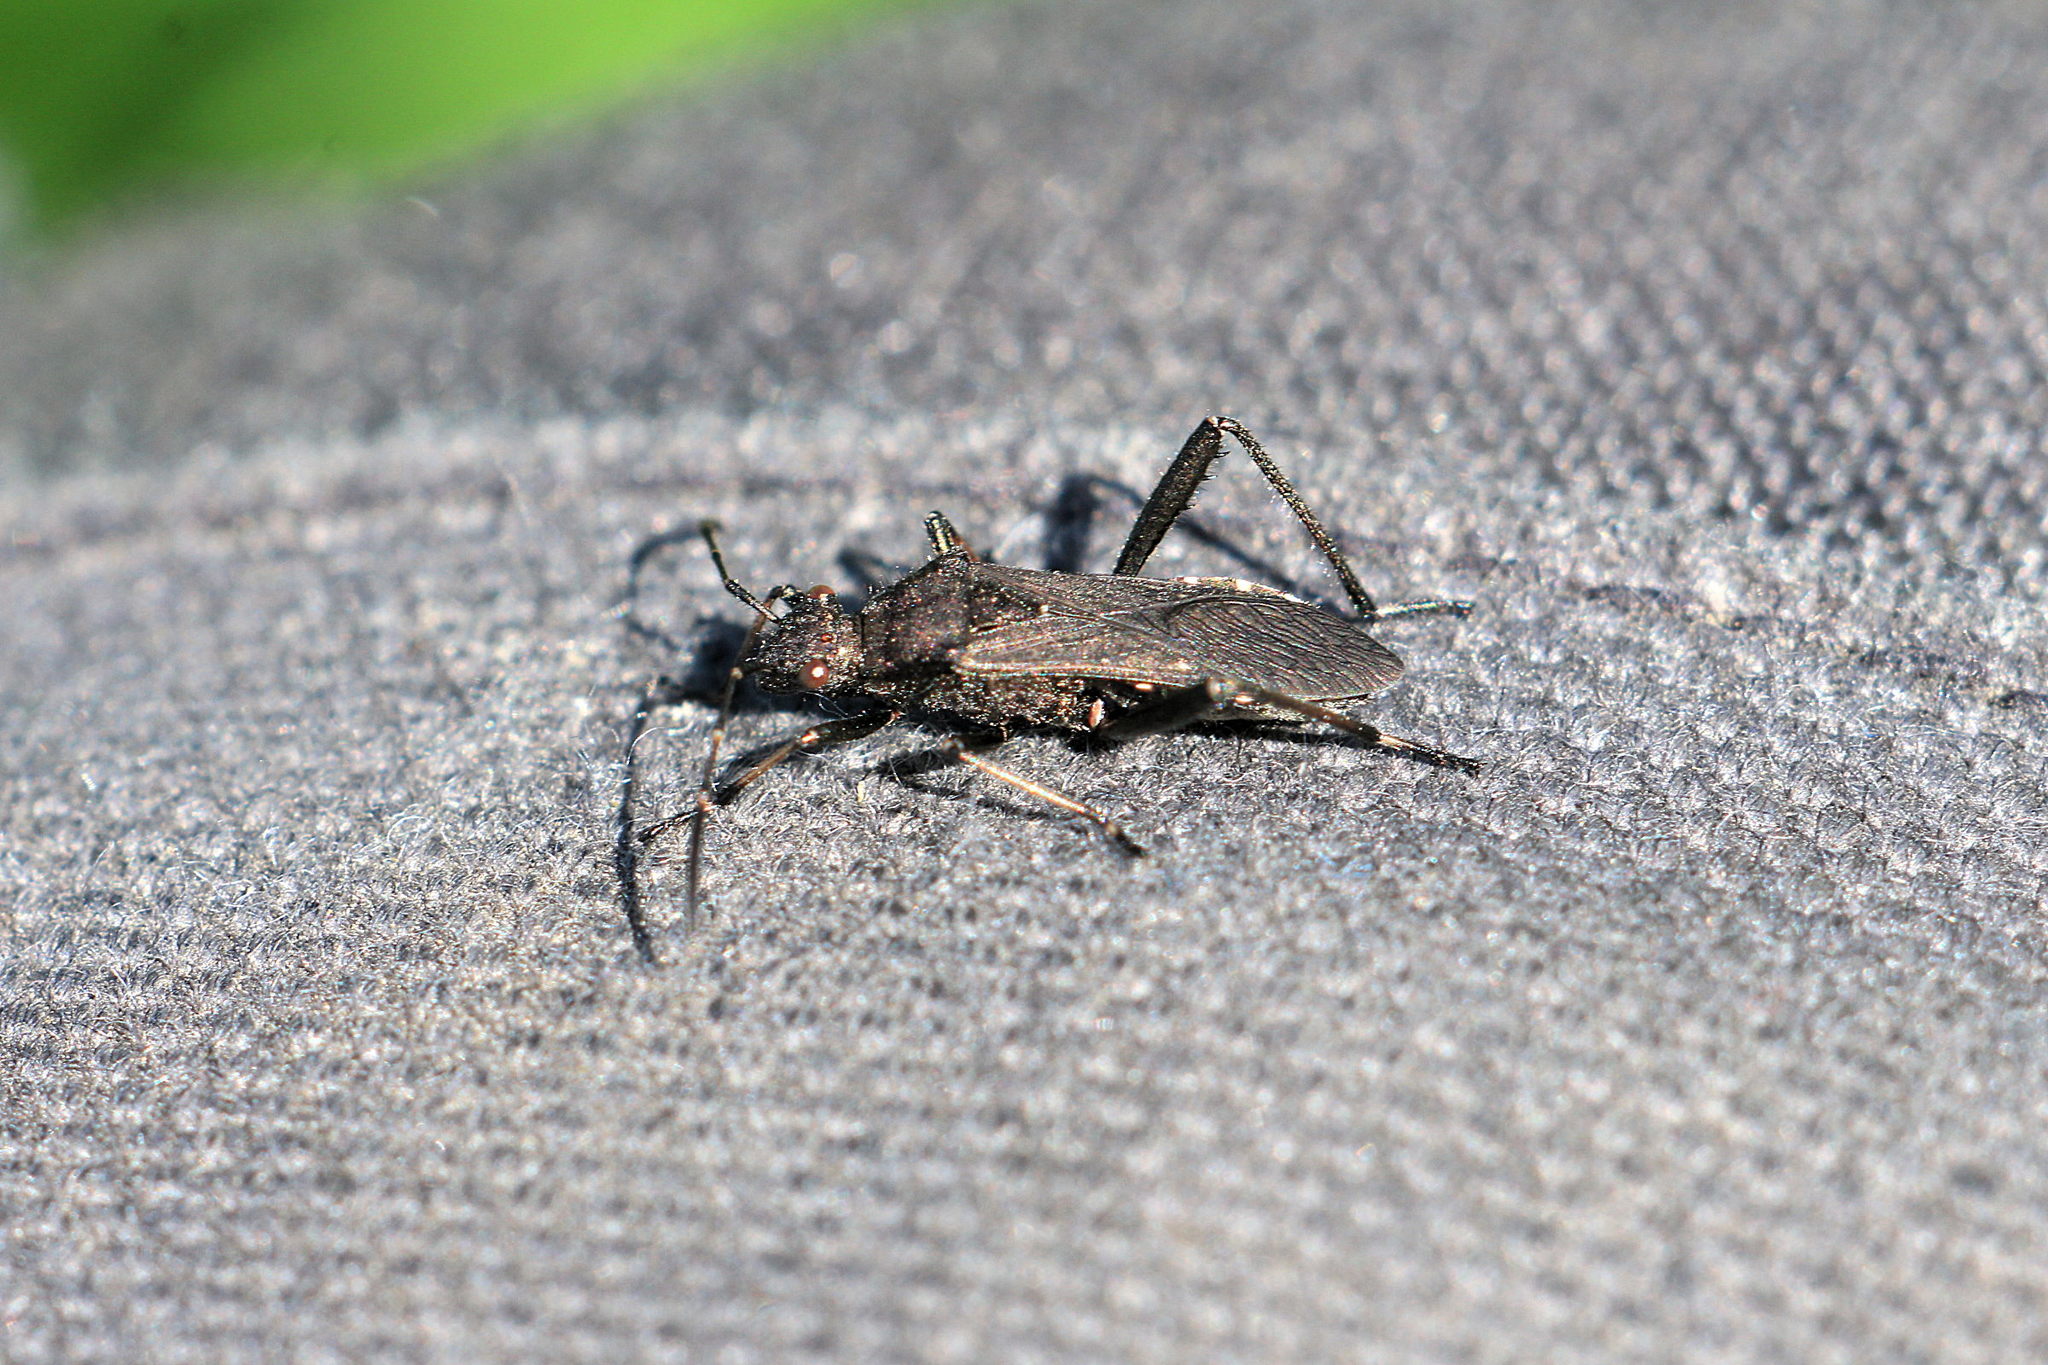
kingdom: Animalia
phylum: Arthropoda
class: Insecta
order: Hemiptera
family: Alydidae
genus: Alydus
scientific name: Alydus calcaratus
